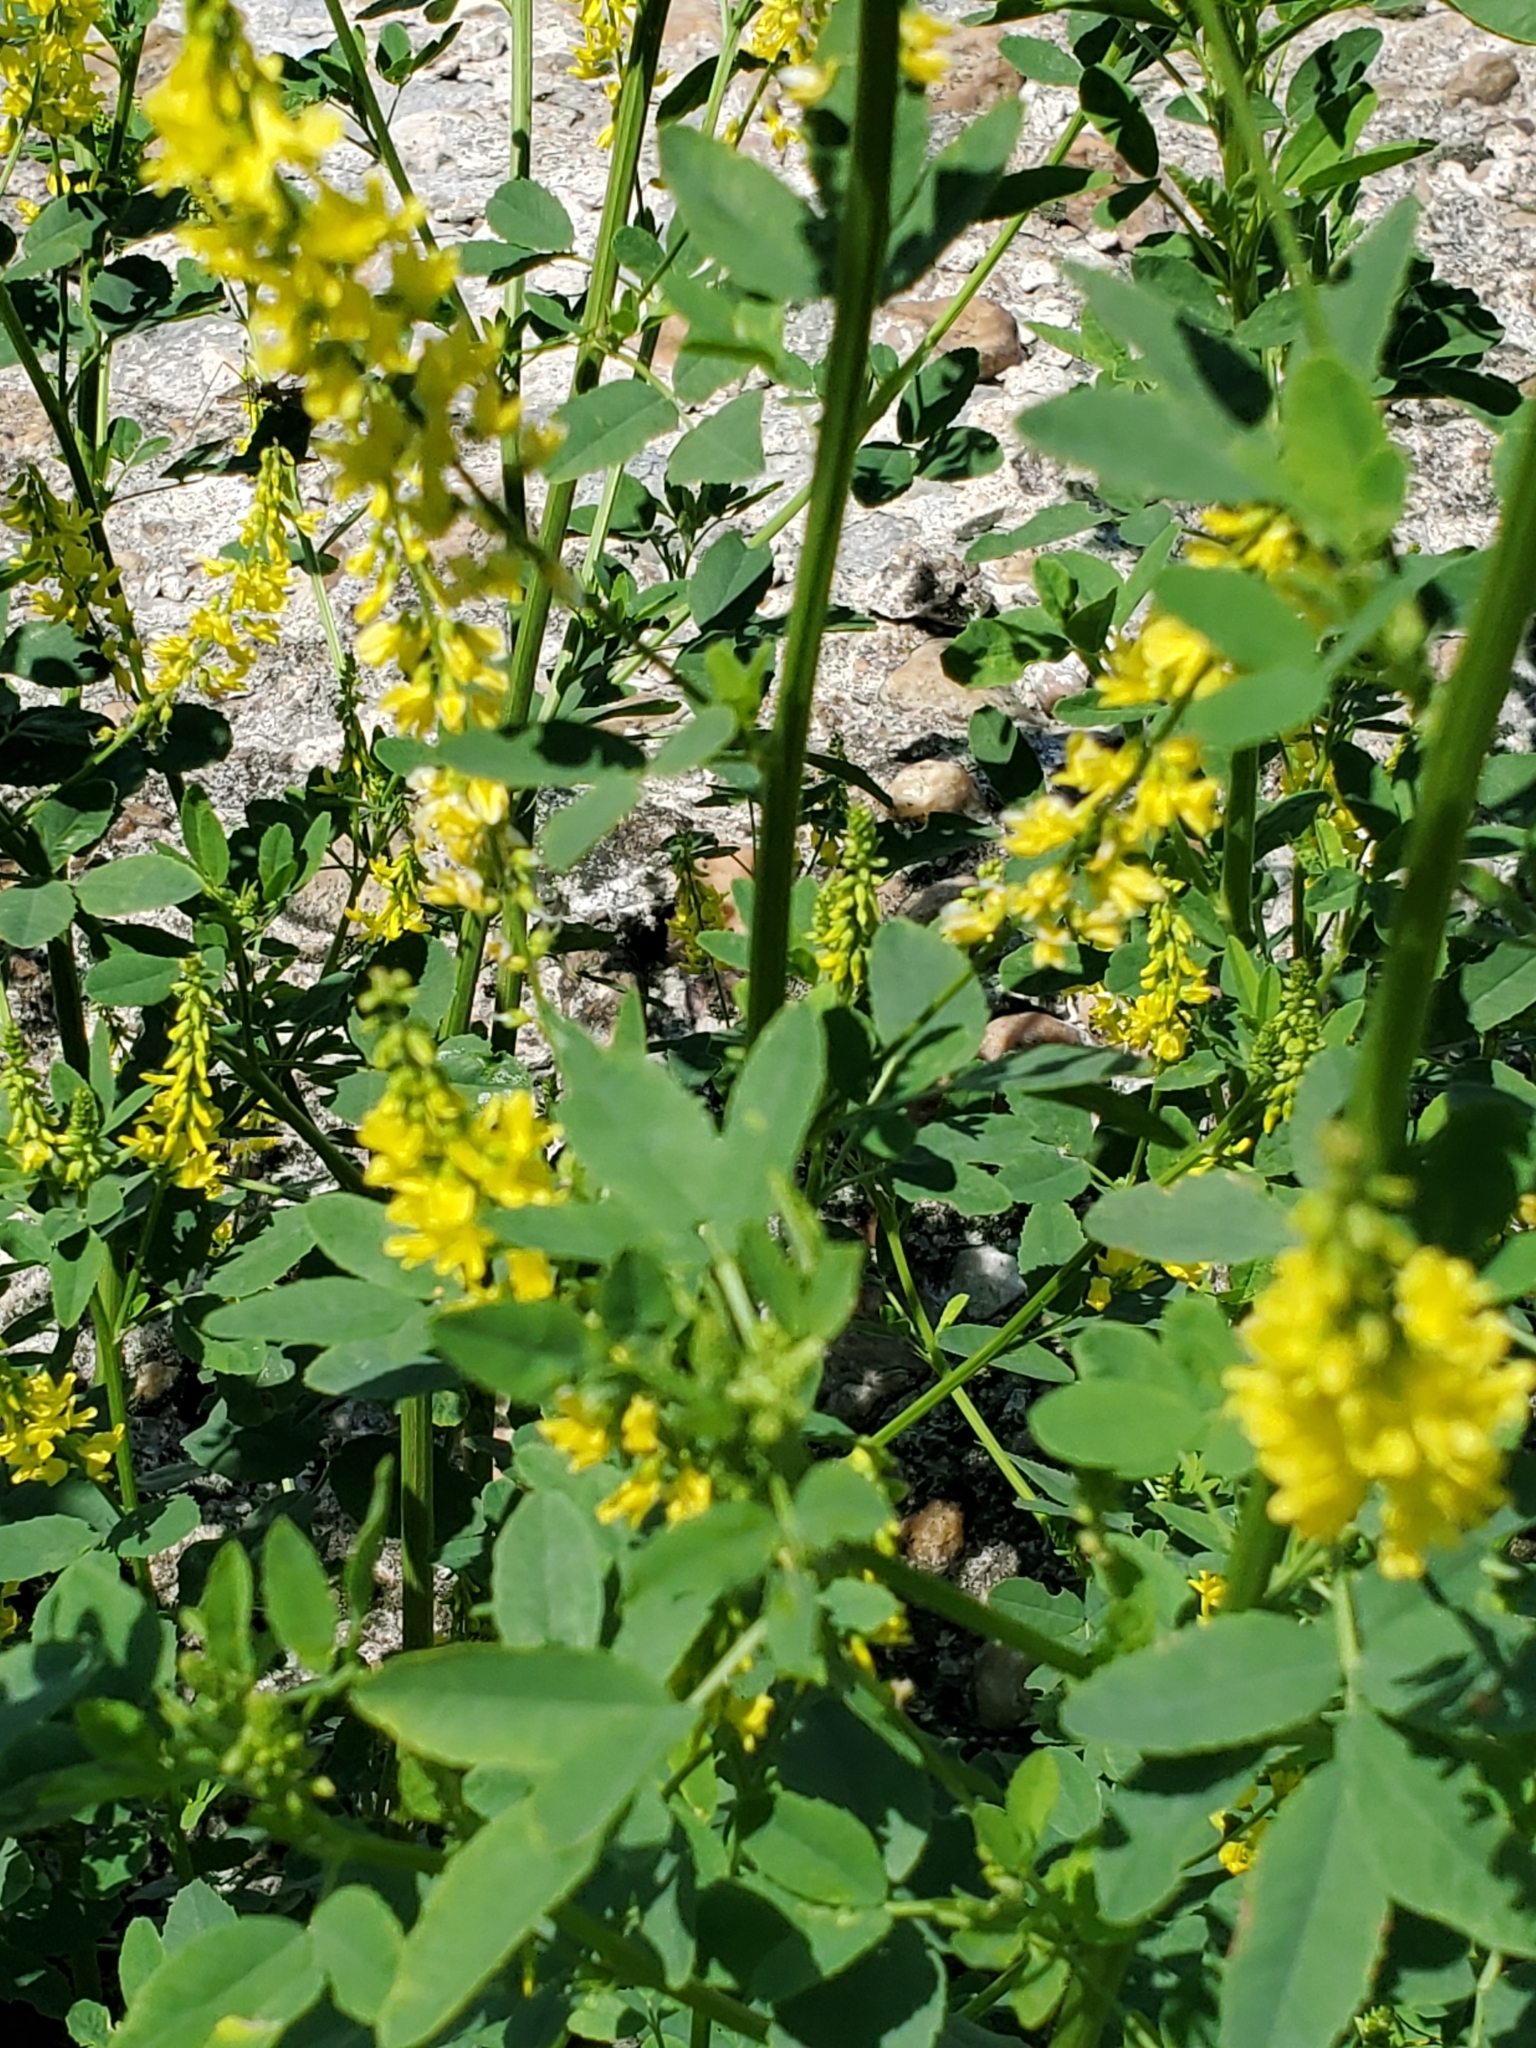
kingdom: Plantae
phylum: Tracheophyta
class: Magnoliopsida
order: Fabales
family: Fabaceae
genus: Melilotus
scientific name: Melilotus officinalis
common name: Sweetclover
